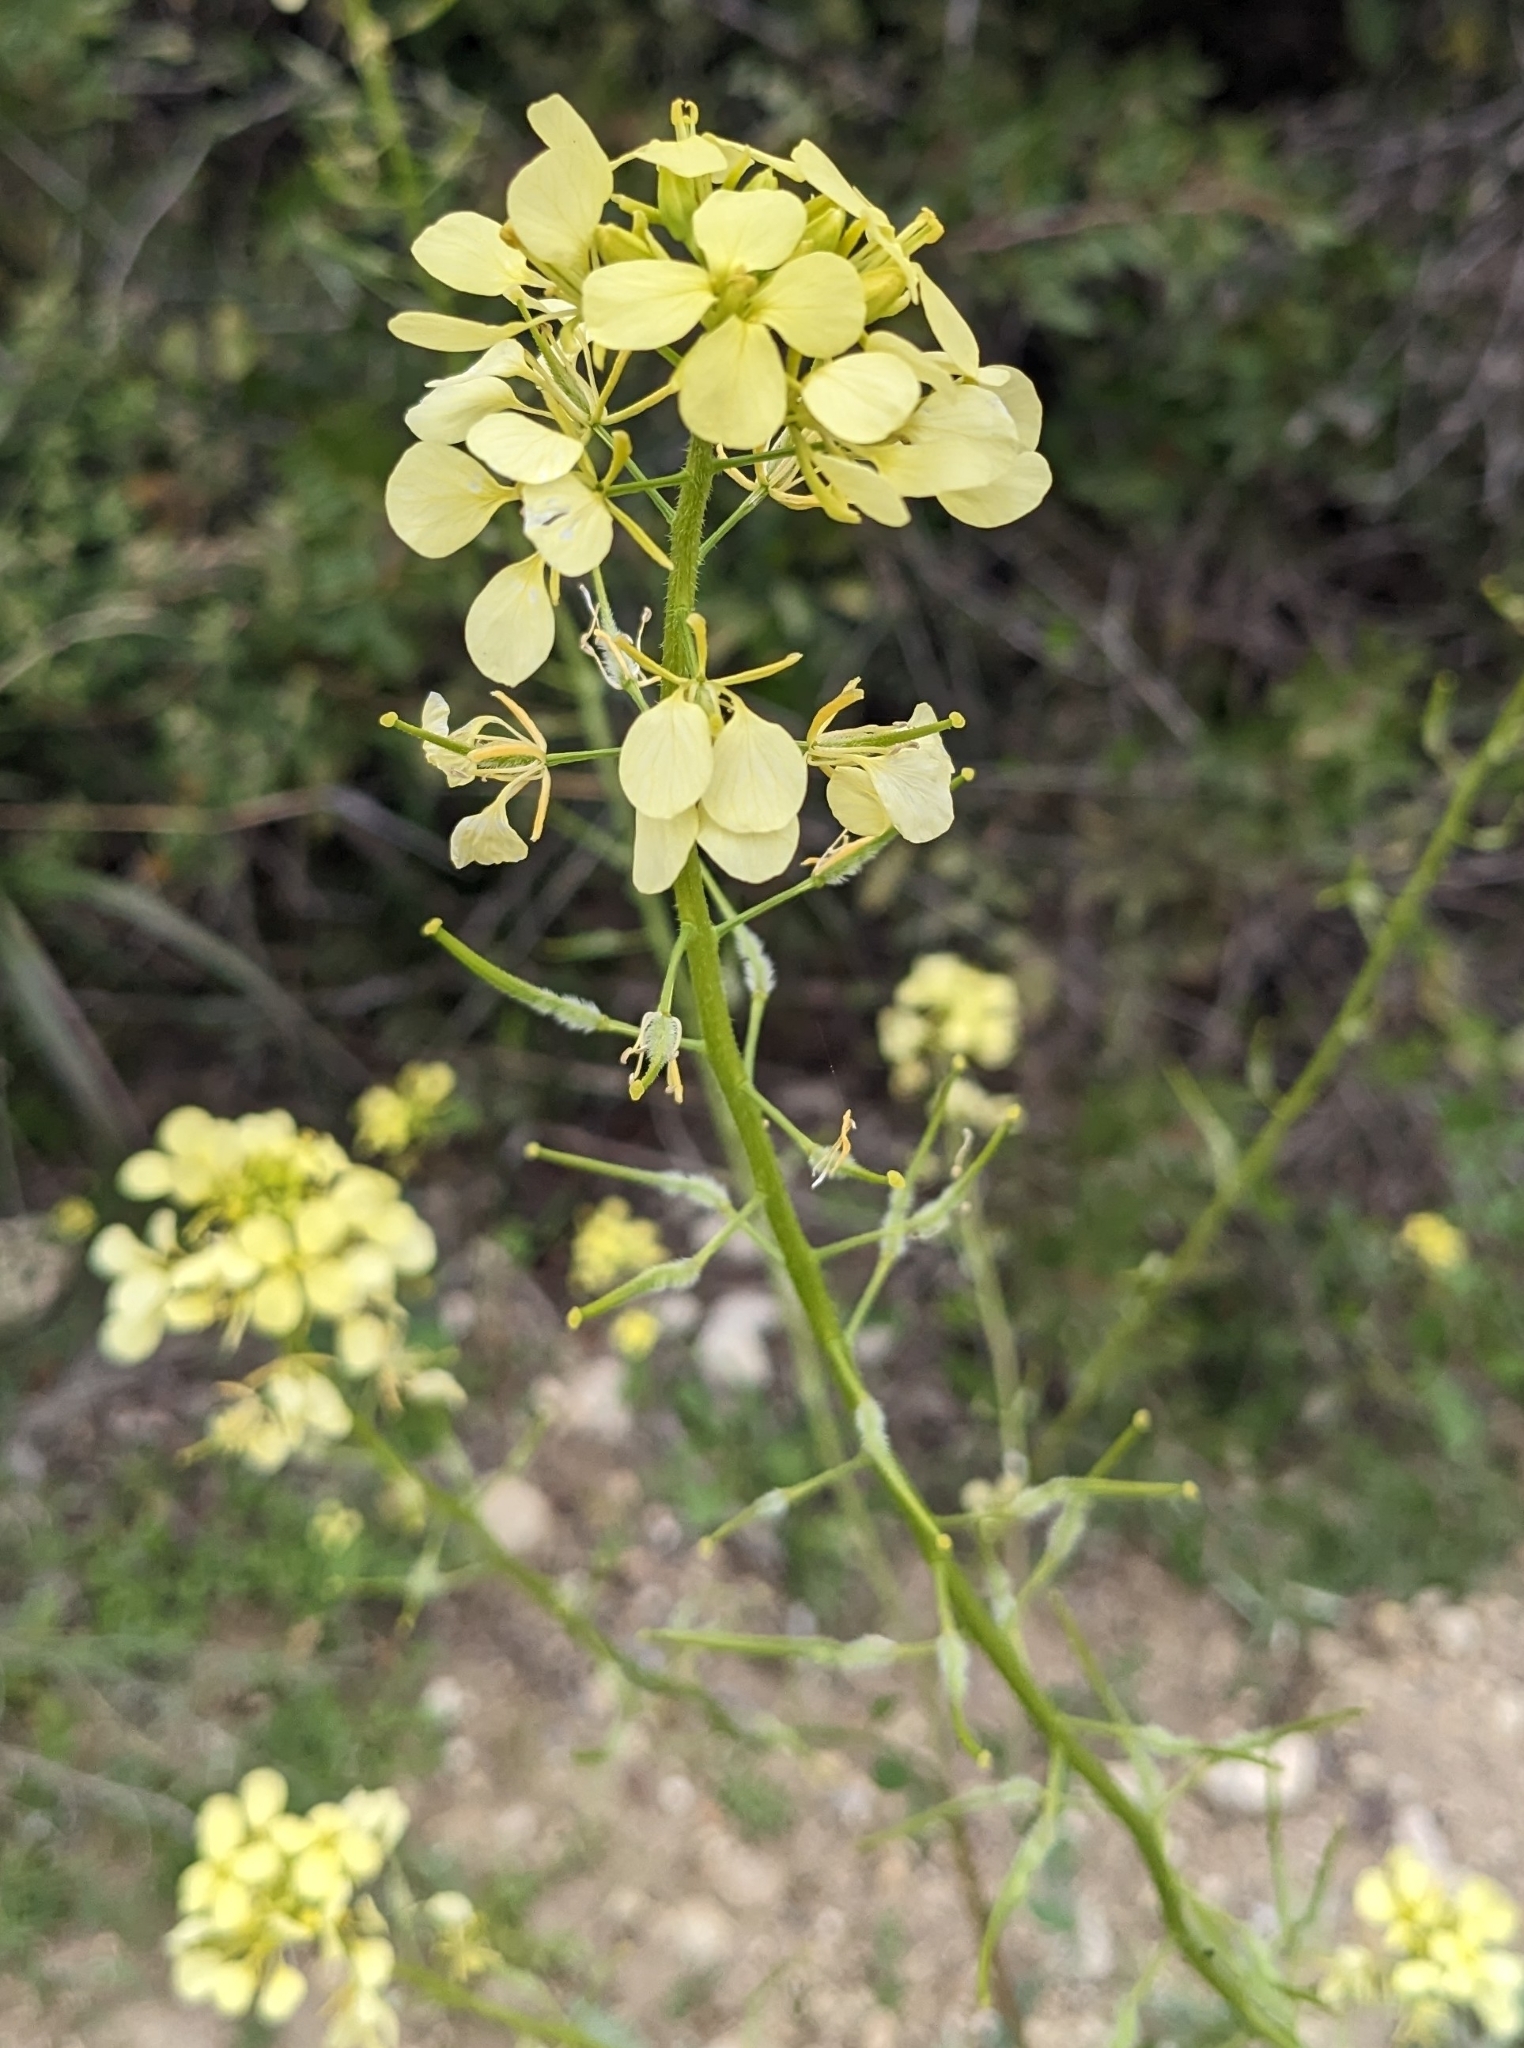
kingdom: Plantae
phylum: Tracheophyta
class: Magnoliopsida
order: Brassicales
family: Brassicaceae
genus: Sinapis
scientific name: Sinapis alba
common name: White mustard
